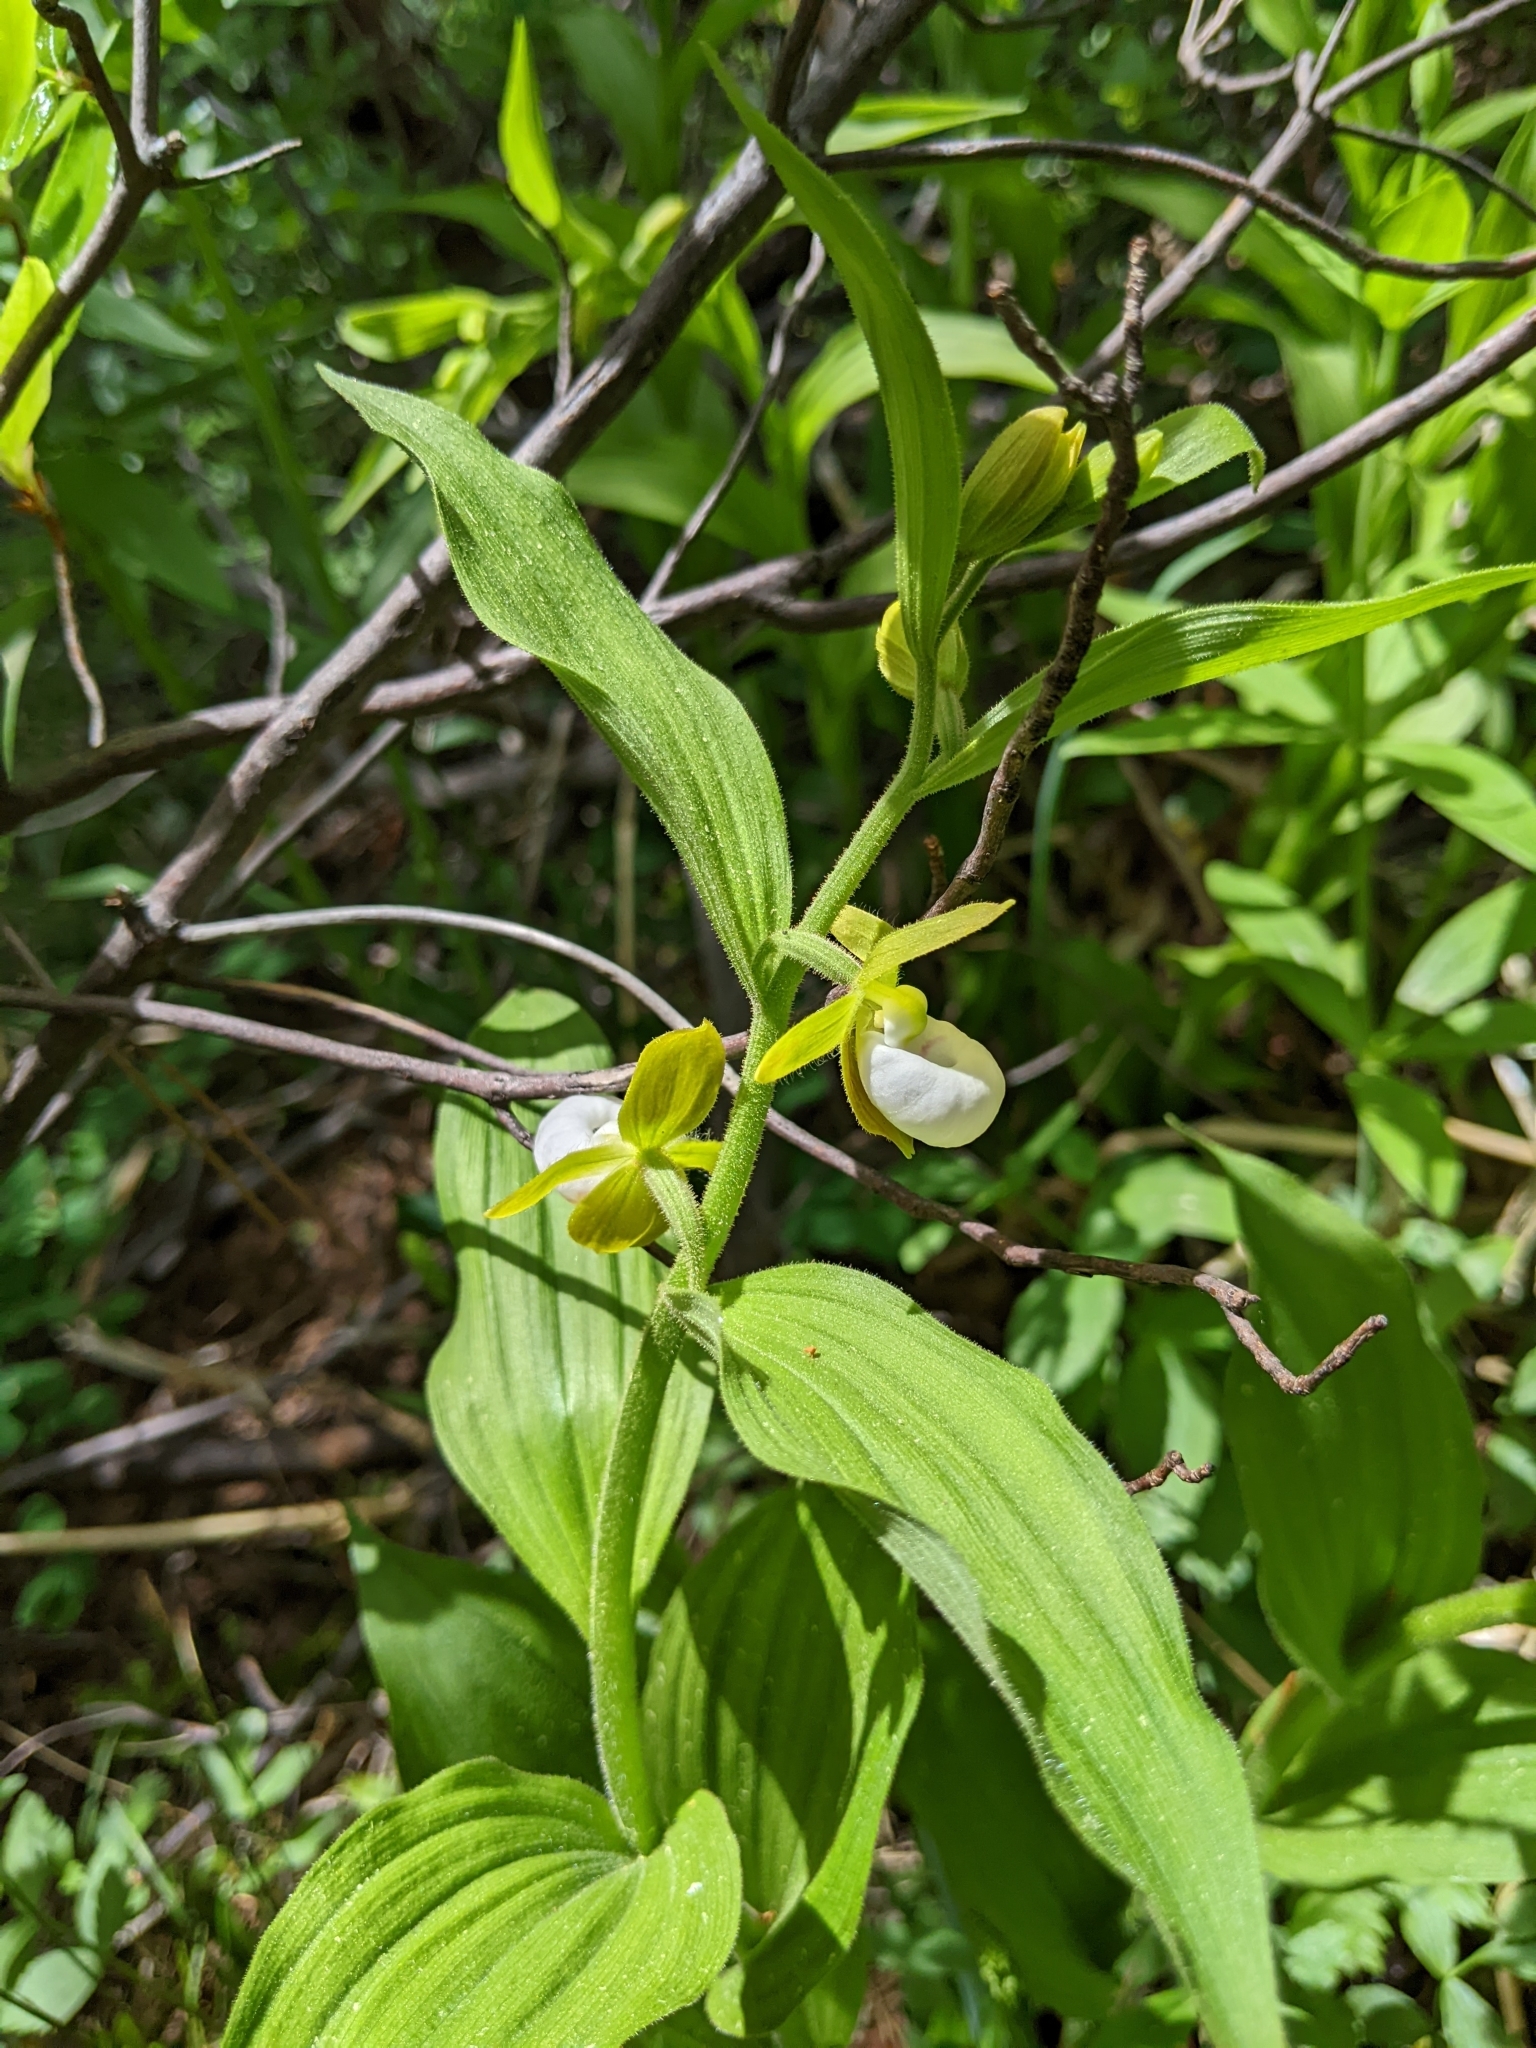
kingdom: Plantae
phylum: Tracheophyta
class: Liliopsida
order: Asparagales
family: Orchidaceae
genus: Cypripedium
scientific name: Cypripedium californicum
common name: California lady's slipper
